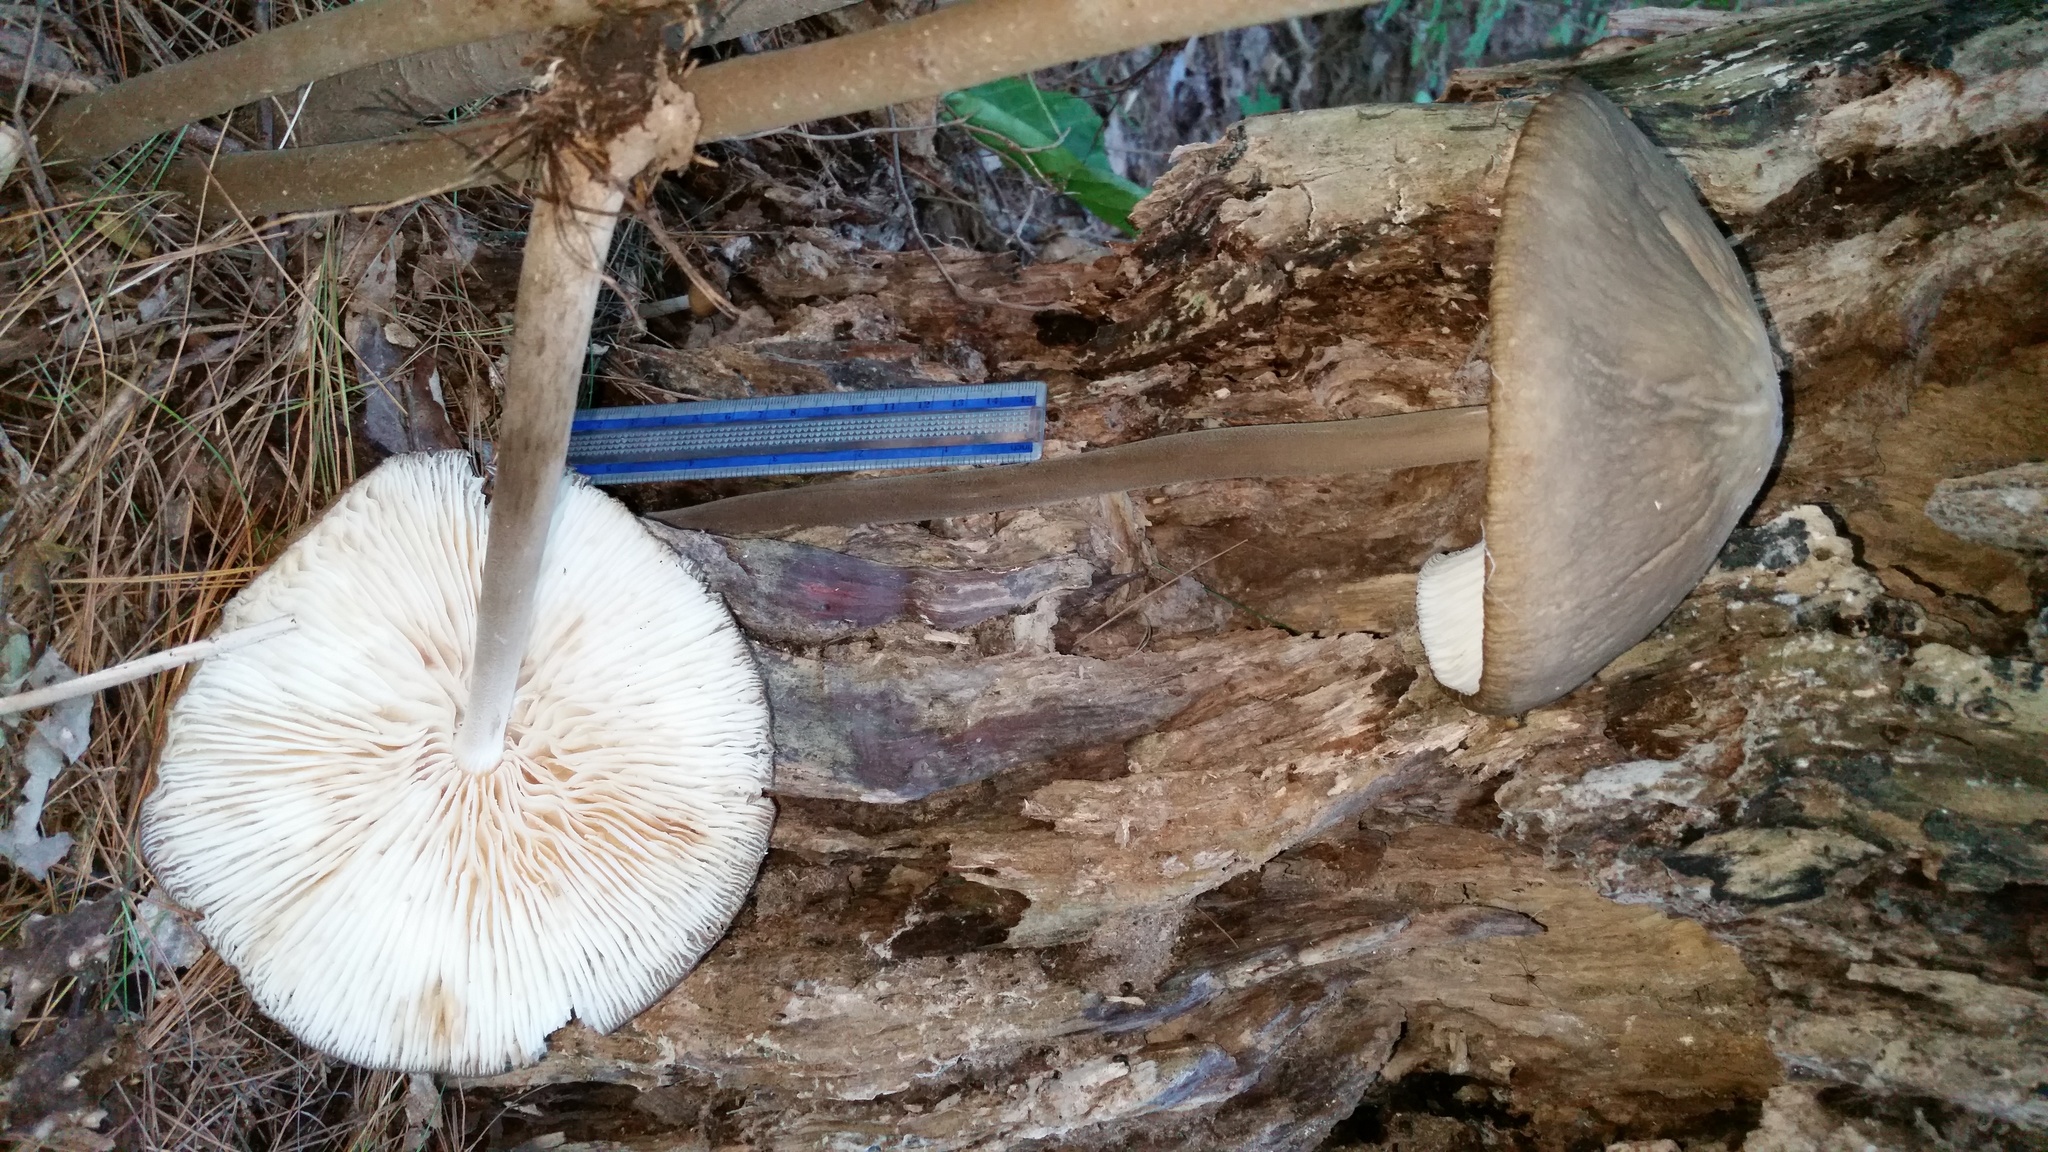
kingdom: Fungi
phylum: Basidiomycota
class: Agaricomycetes
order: Agaricales
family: Physalacriaceae
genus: Hymenopellis
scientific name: Hymenopellis furfuracea
